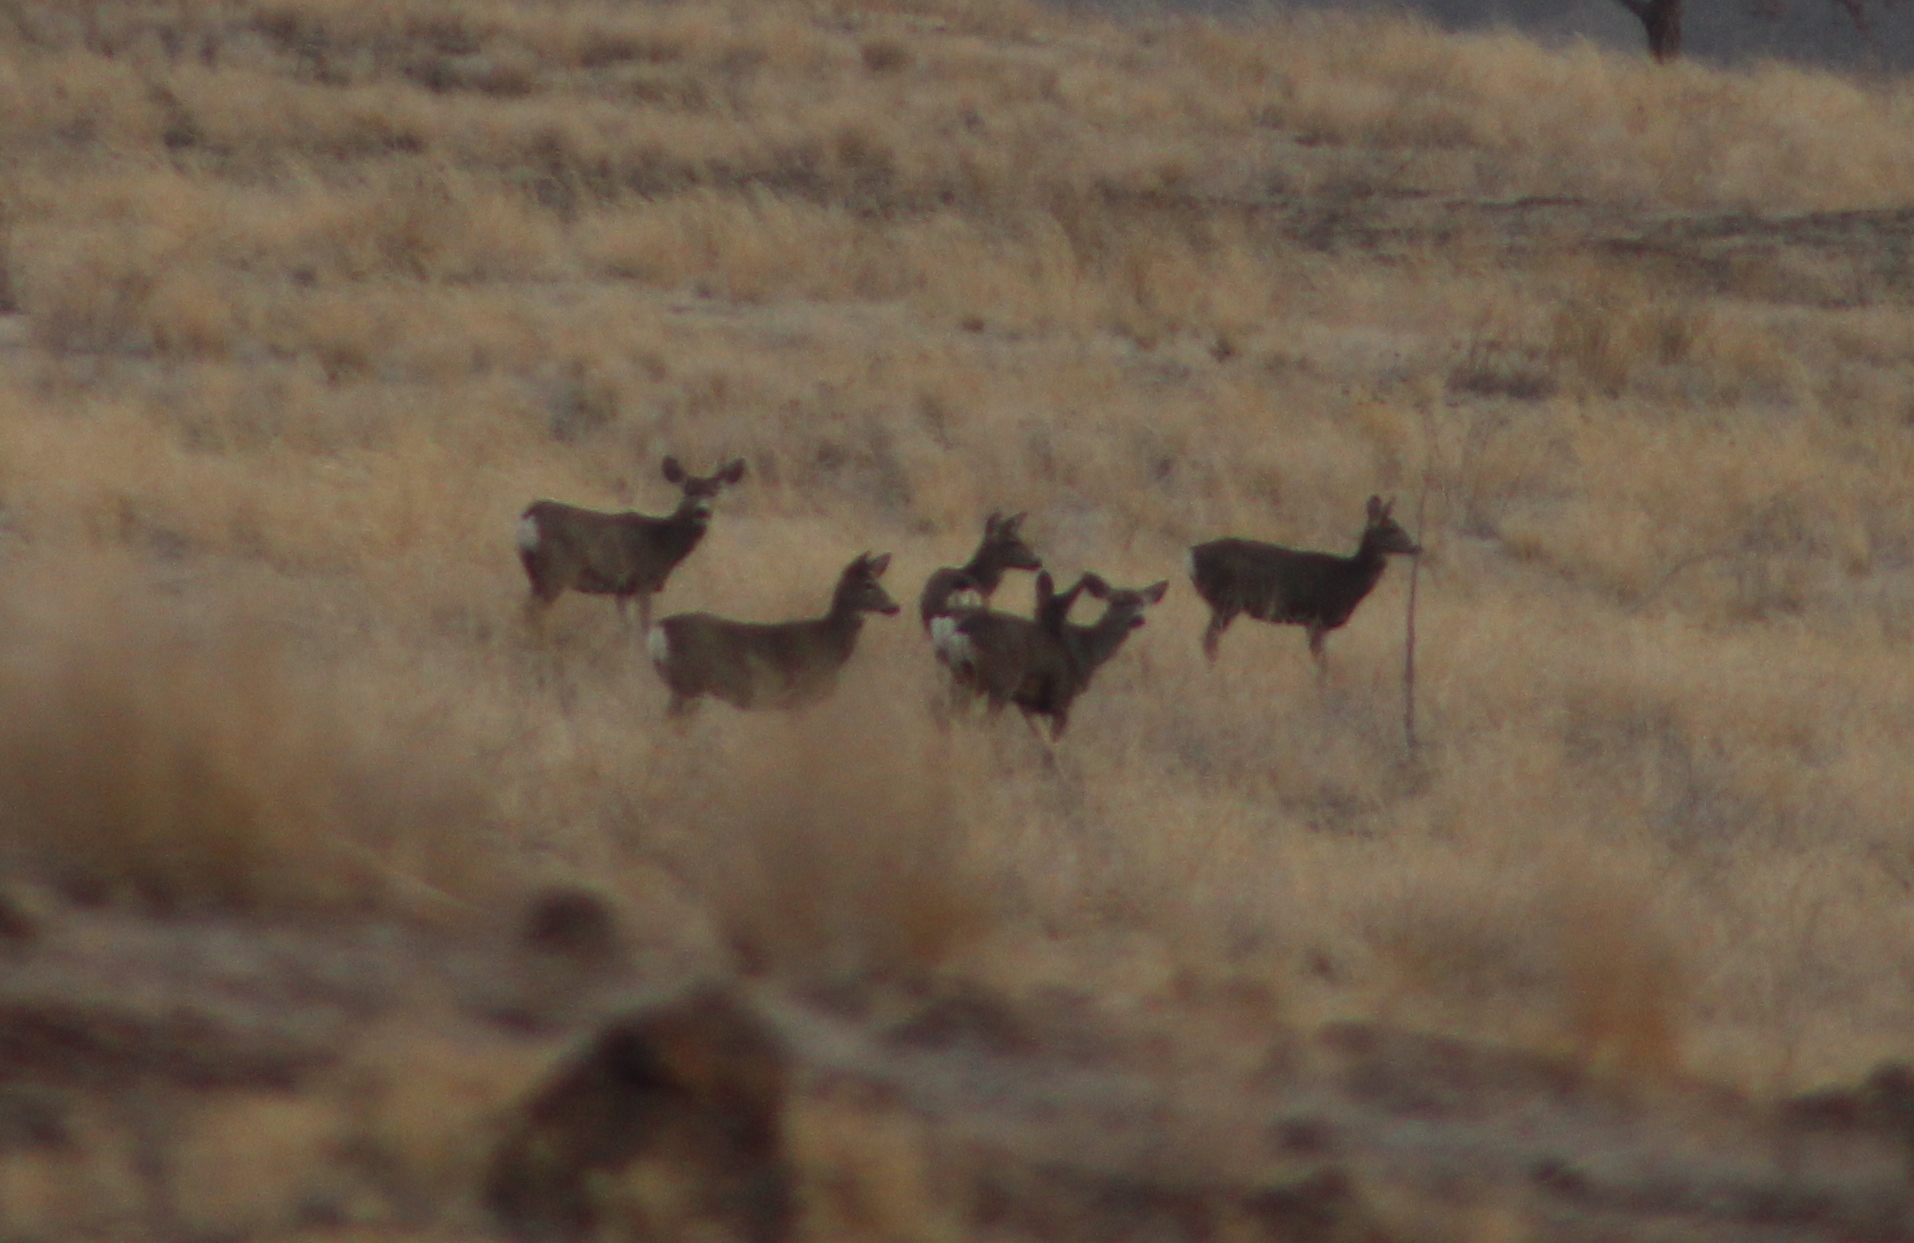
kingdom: Animalia
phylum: Chordata
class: Mammalia
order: Artiodactyla
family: Cervidae
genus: Odocoileus
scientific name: Odocoileus hemionus
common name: Mule deer
